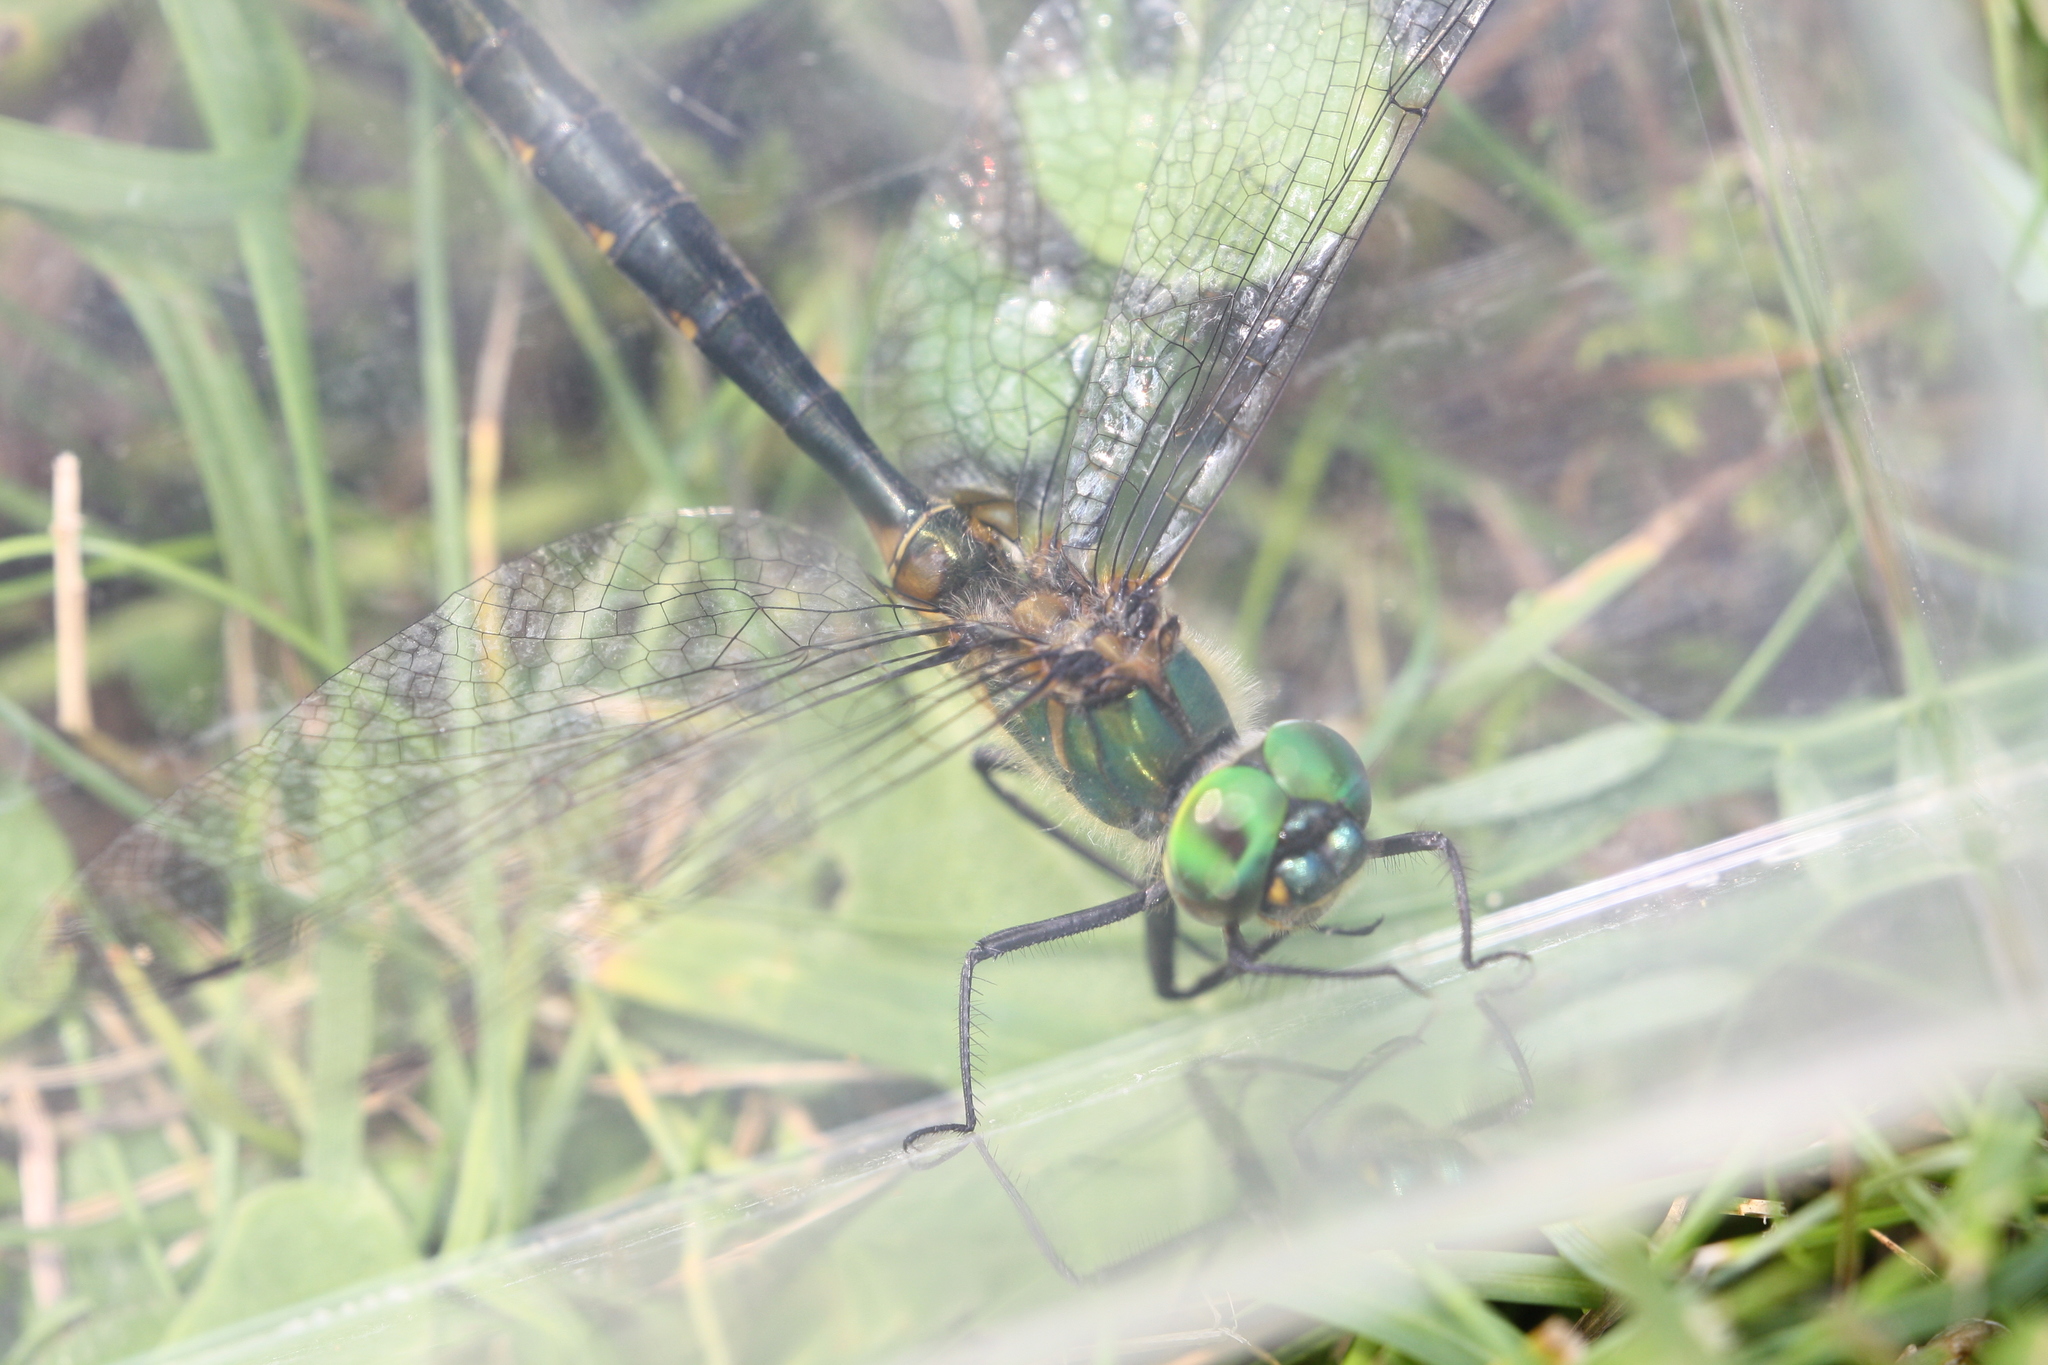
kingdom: Animalia
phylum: Arthropoda
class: Insecta
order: Odonata
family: Corduliidae
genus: Somatochlora
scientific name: Somatochlora flavomaculata
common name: Yellow-spotted emerald
